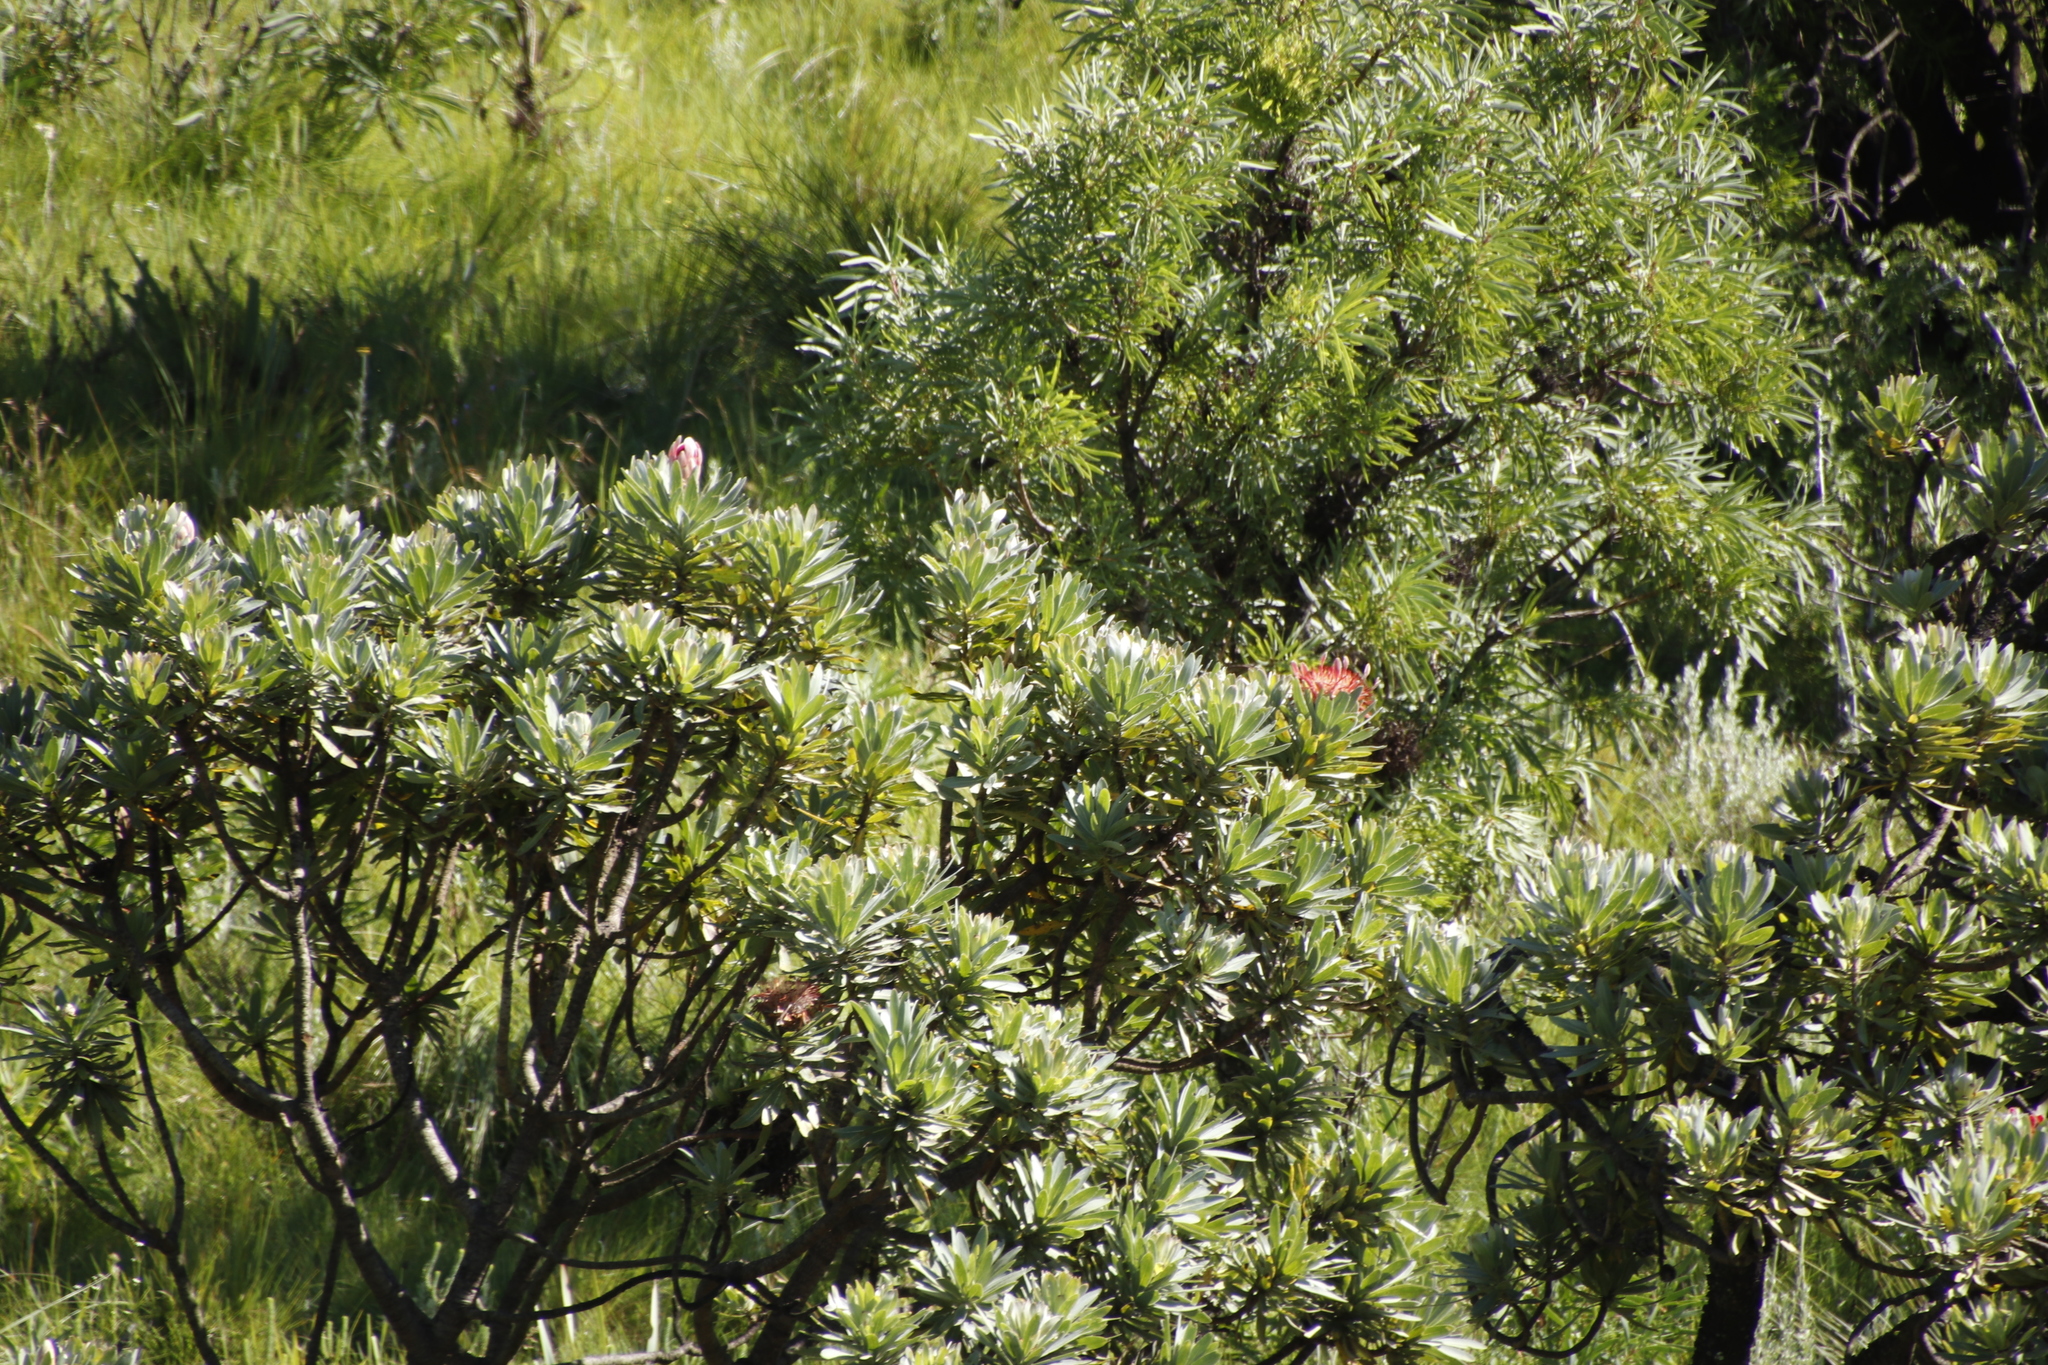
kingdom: Plantae
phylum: Tracheophyta
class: Magnoliopsida
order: Proteales
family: Proteaceae
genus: Protea
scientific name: Protea roupelliae
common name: Silver sugarbush
